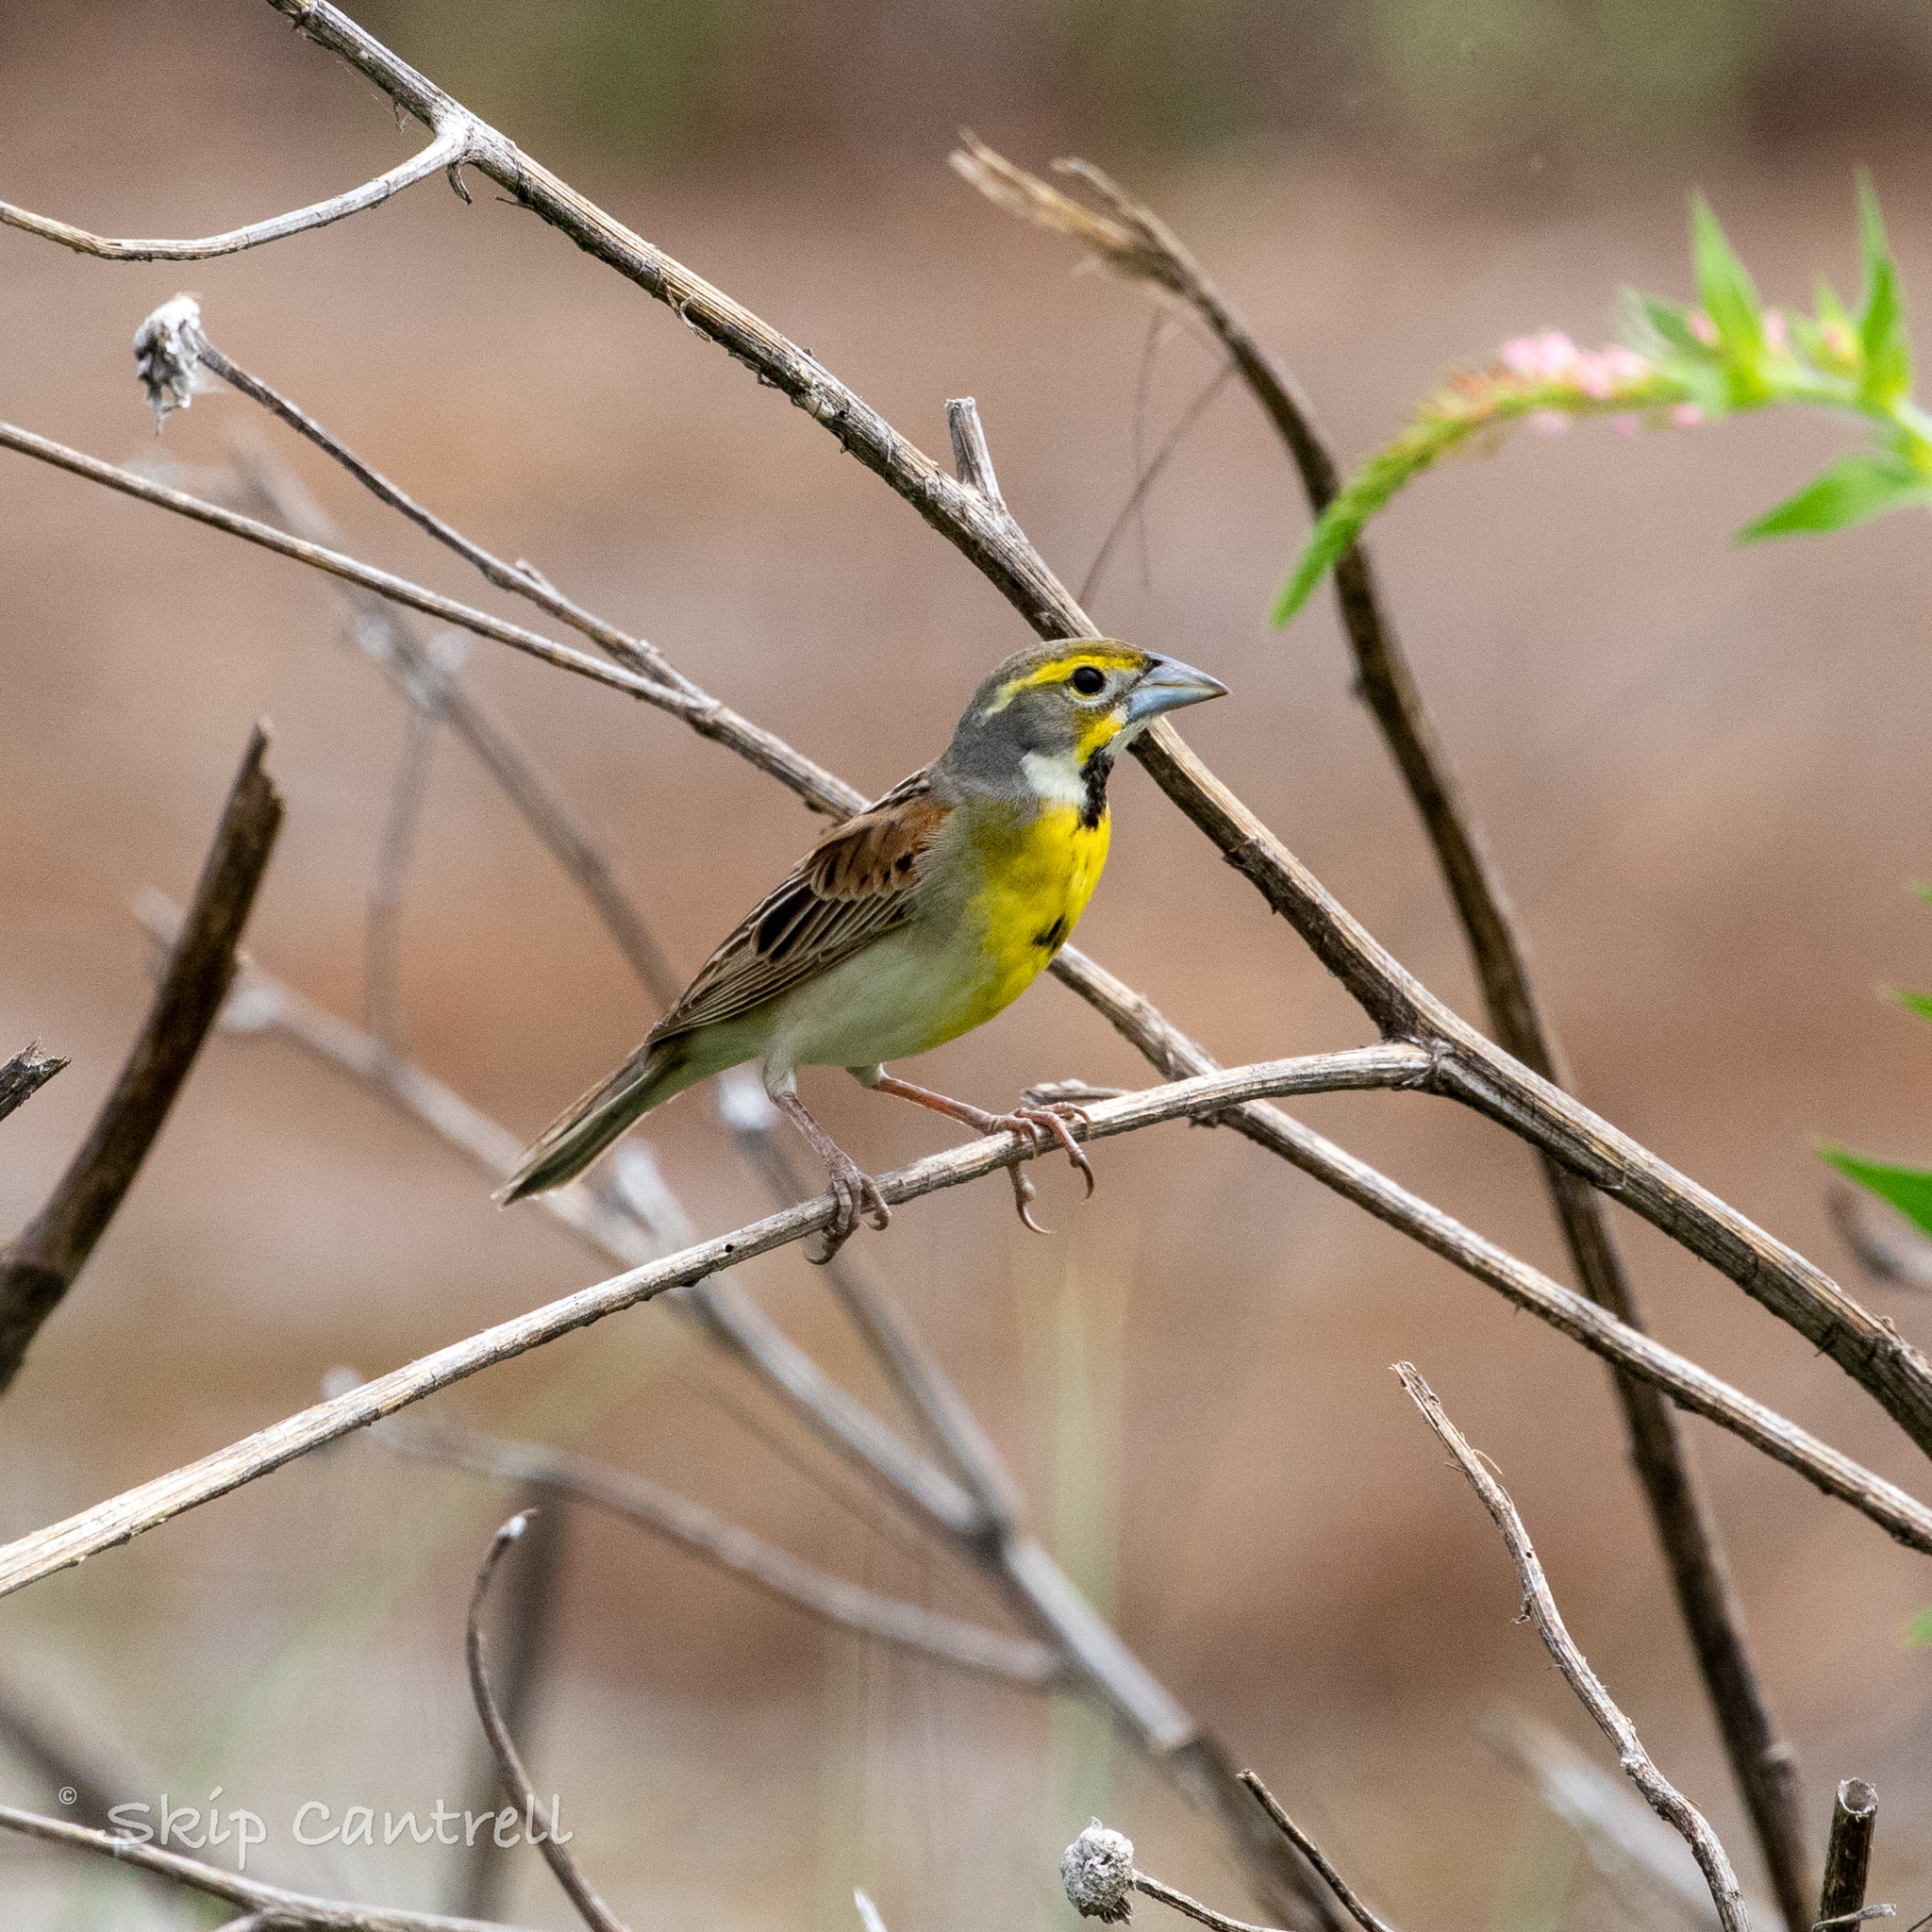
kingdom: Animalia
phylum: Chordata
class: Aves
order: Passeriformes
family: Cardinalidae
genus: Spiza
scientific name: Spiza americana
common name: Dickcissel
